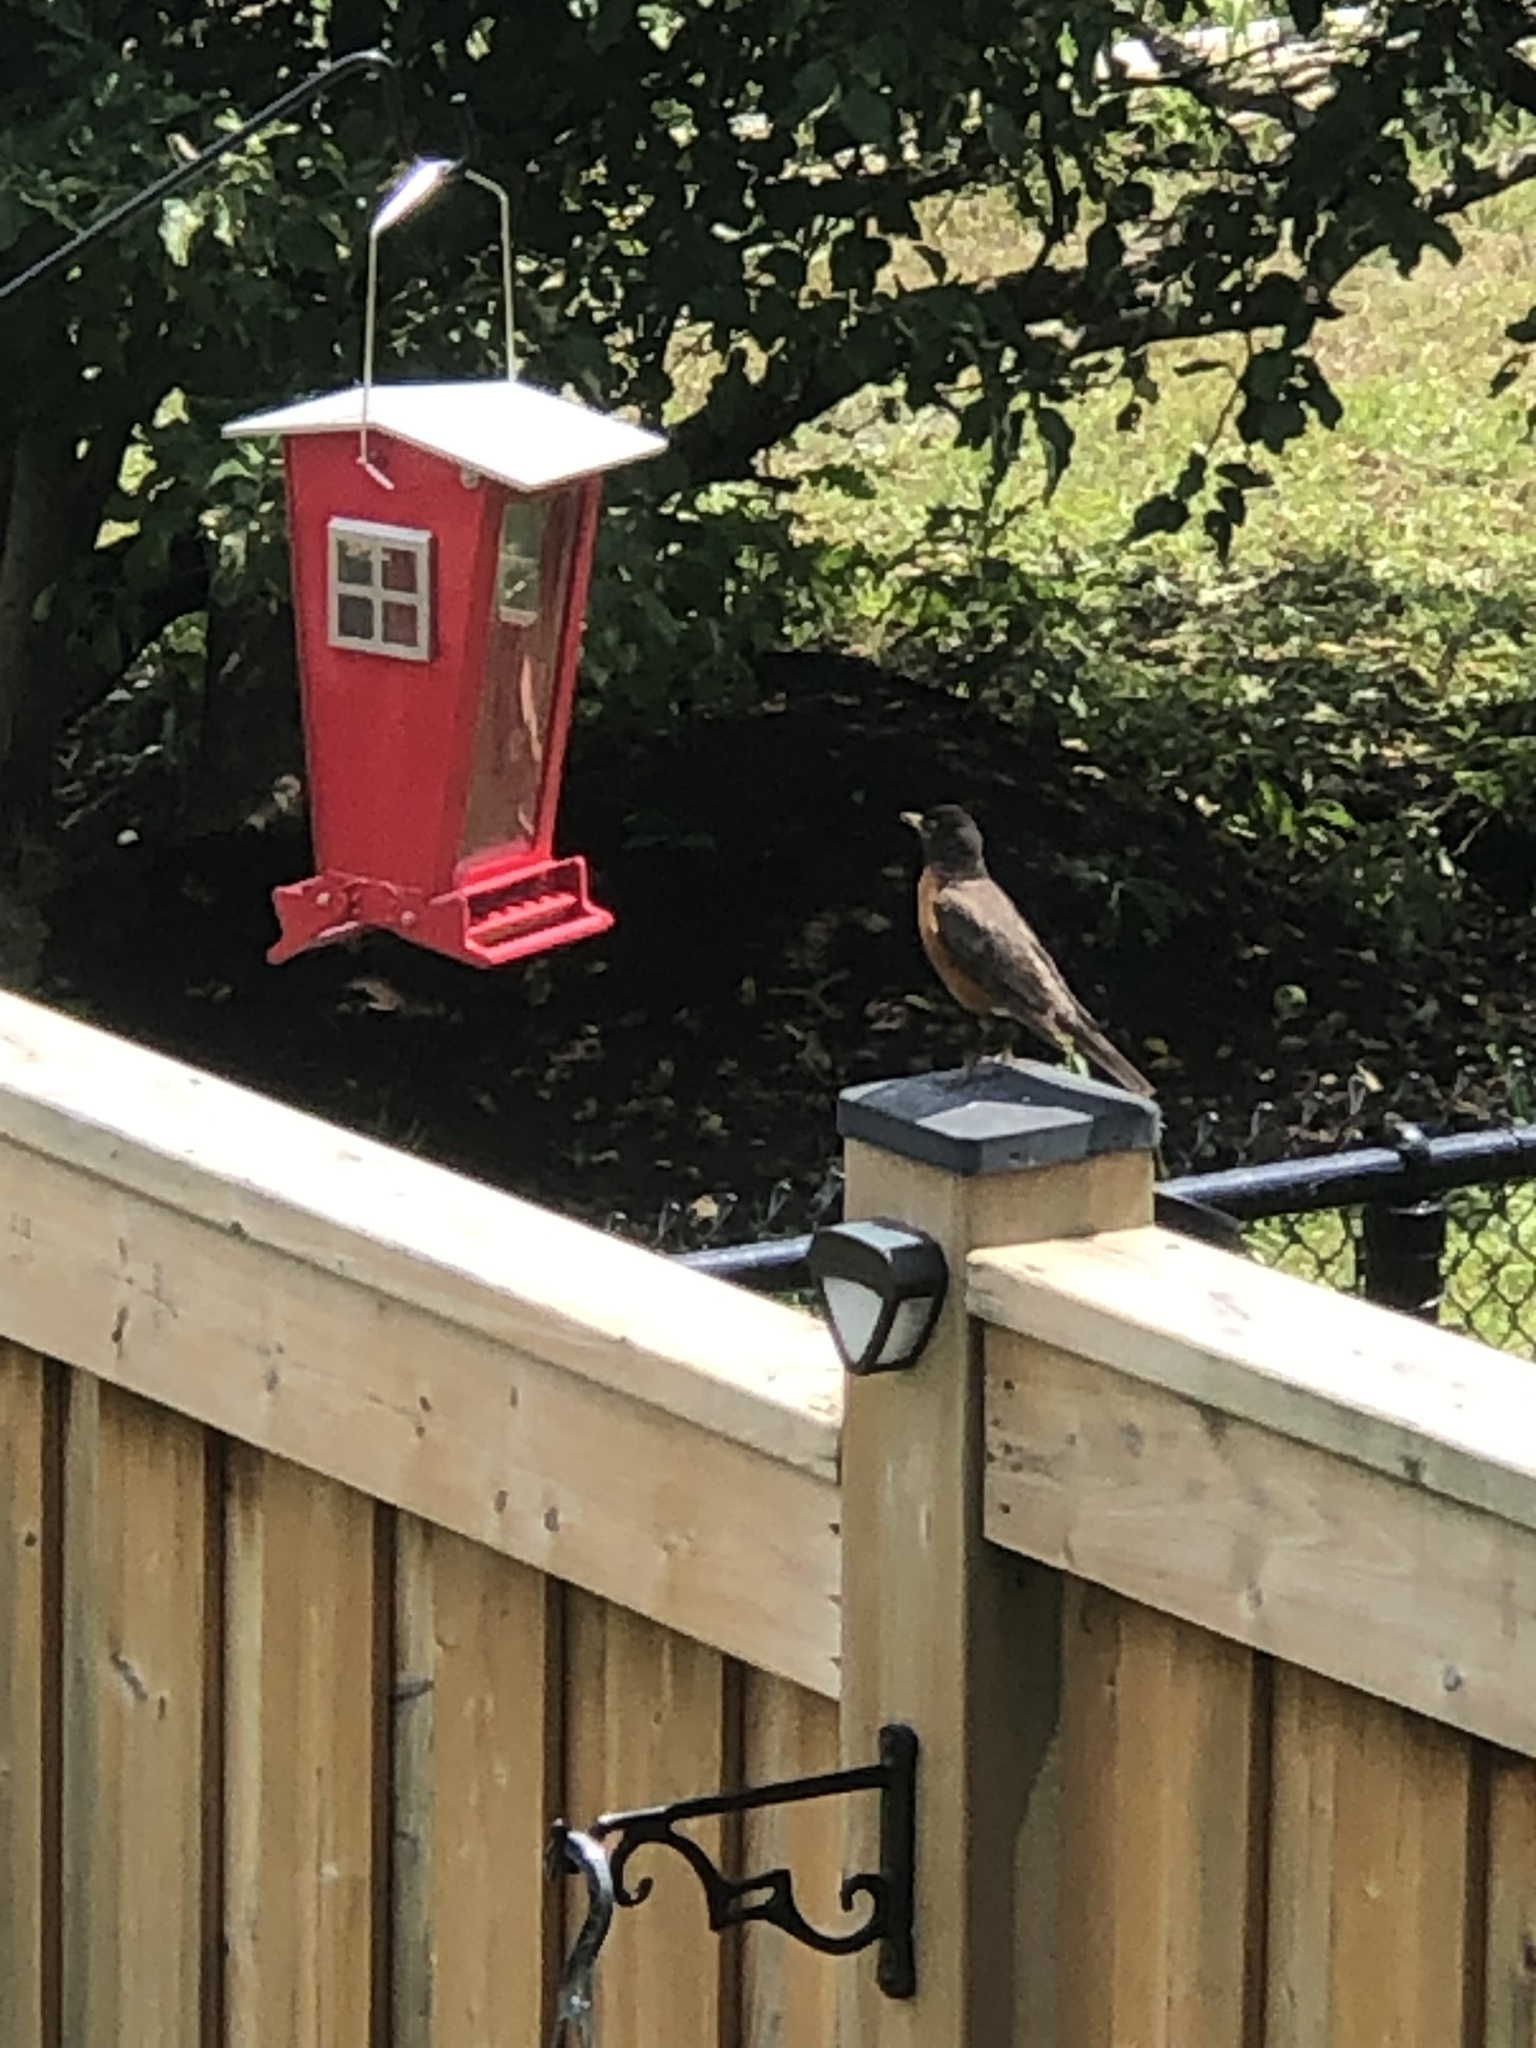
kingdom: Animalia
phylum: Chordata
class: Aves
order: Passeriformes
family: Turdidae
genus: Turdus
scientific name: Turdus migratorius
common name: American robin
